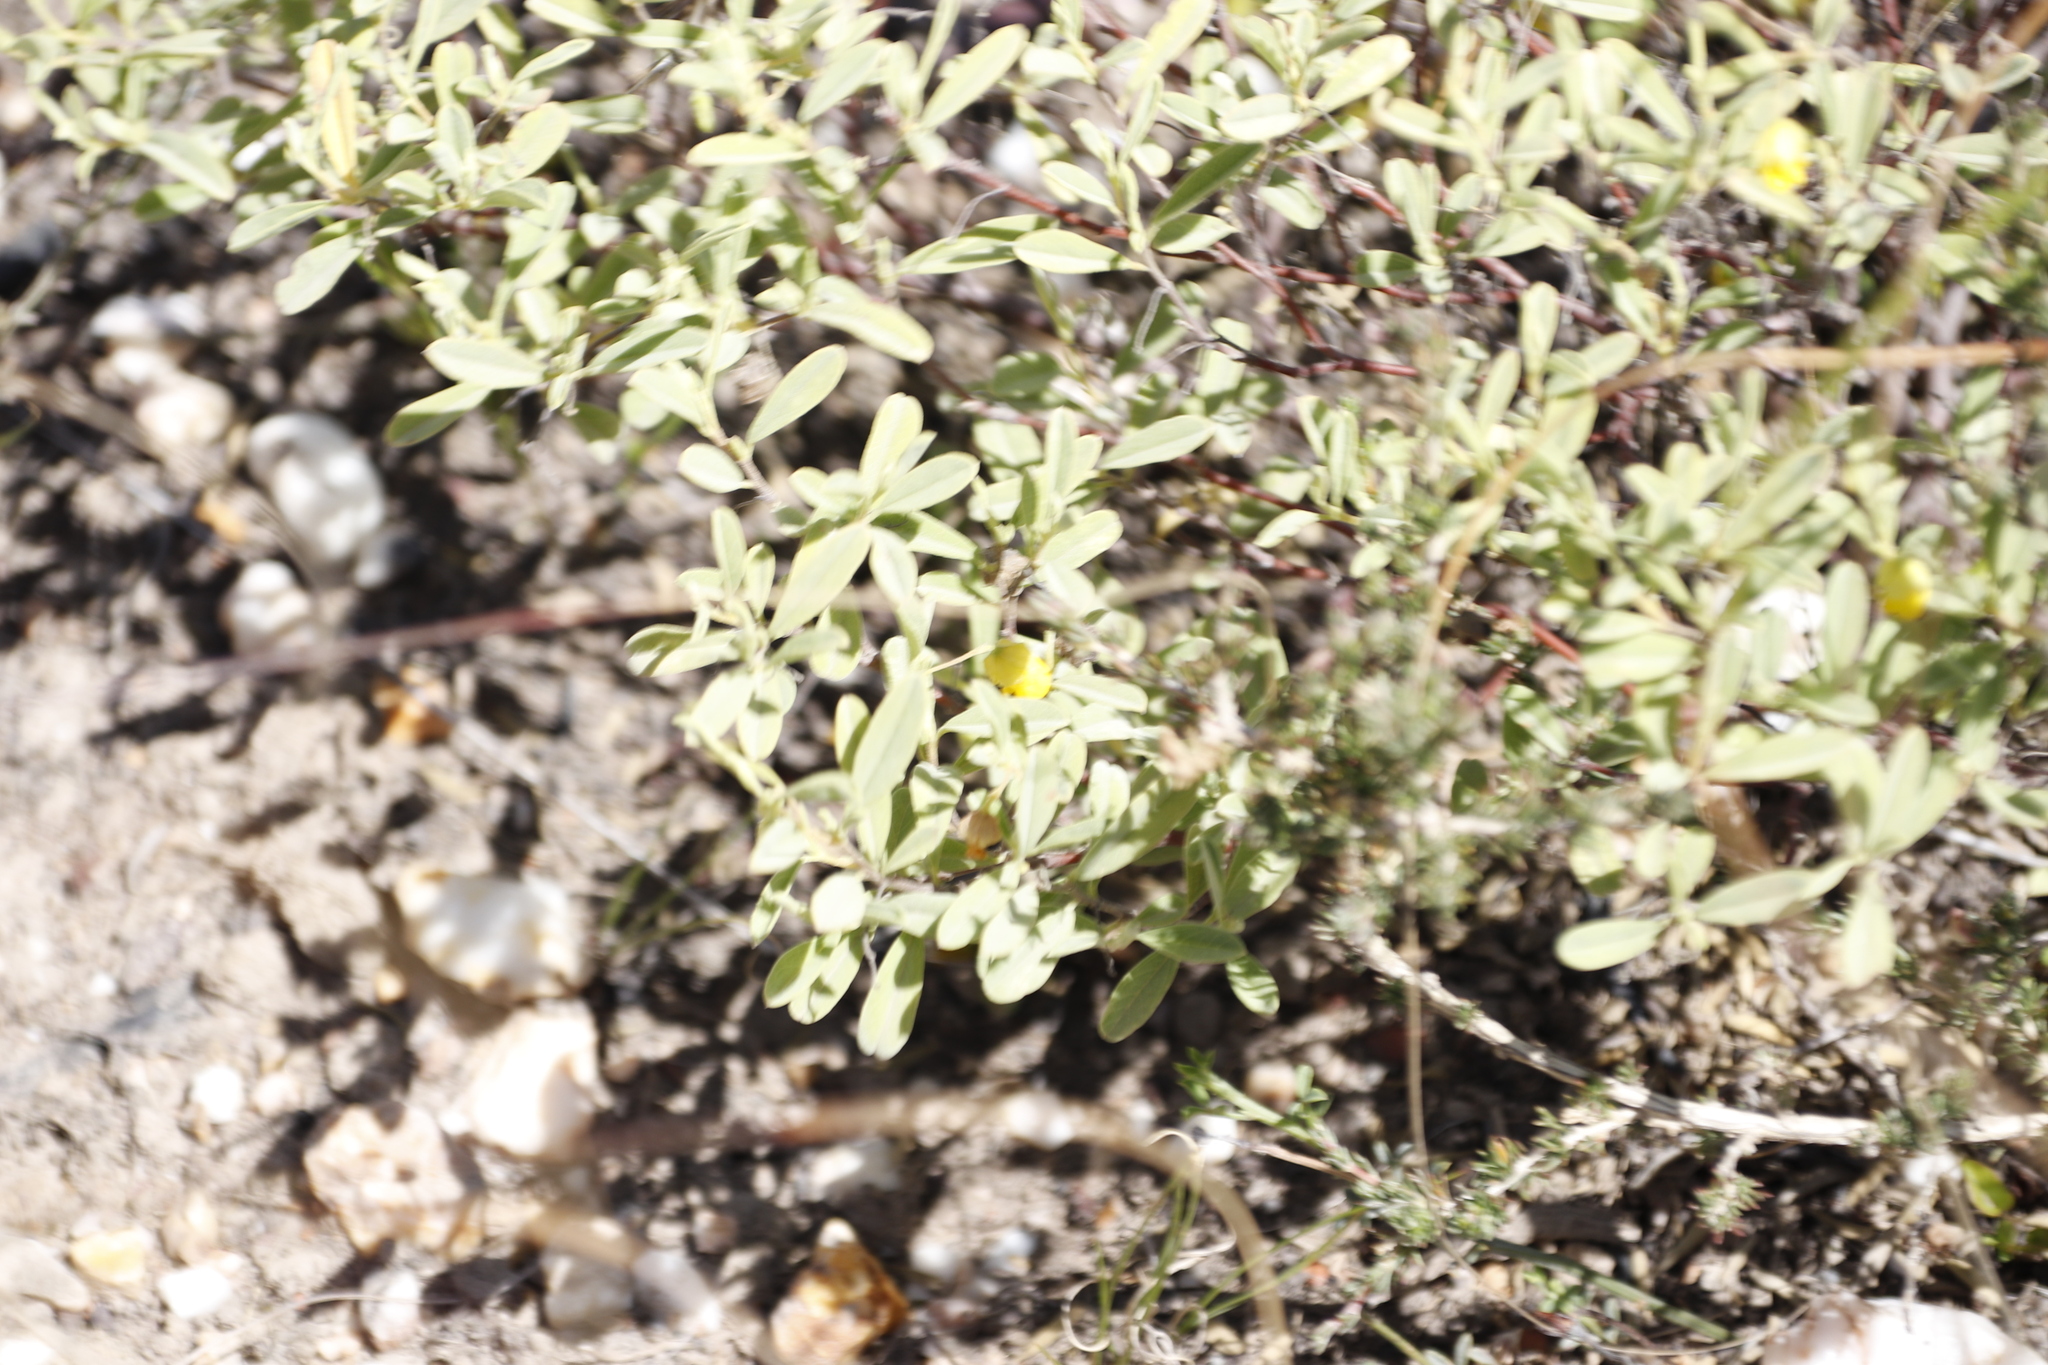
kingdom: Plantae
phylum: Tracheophyta
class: Magnoliopsida
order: Malvales
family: Malvaceae
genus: Hermannia
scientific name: Hermannia lavandulifolia
